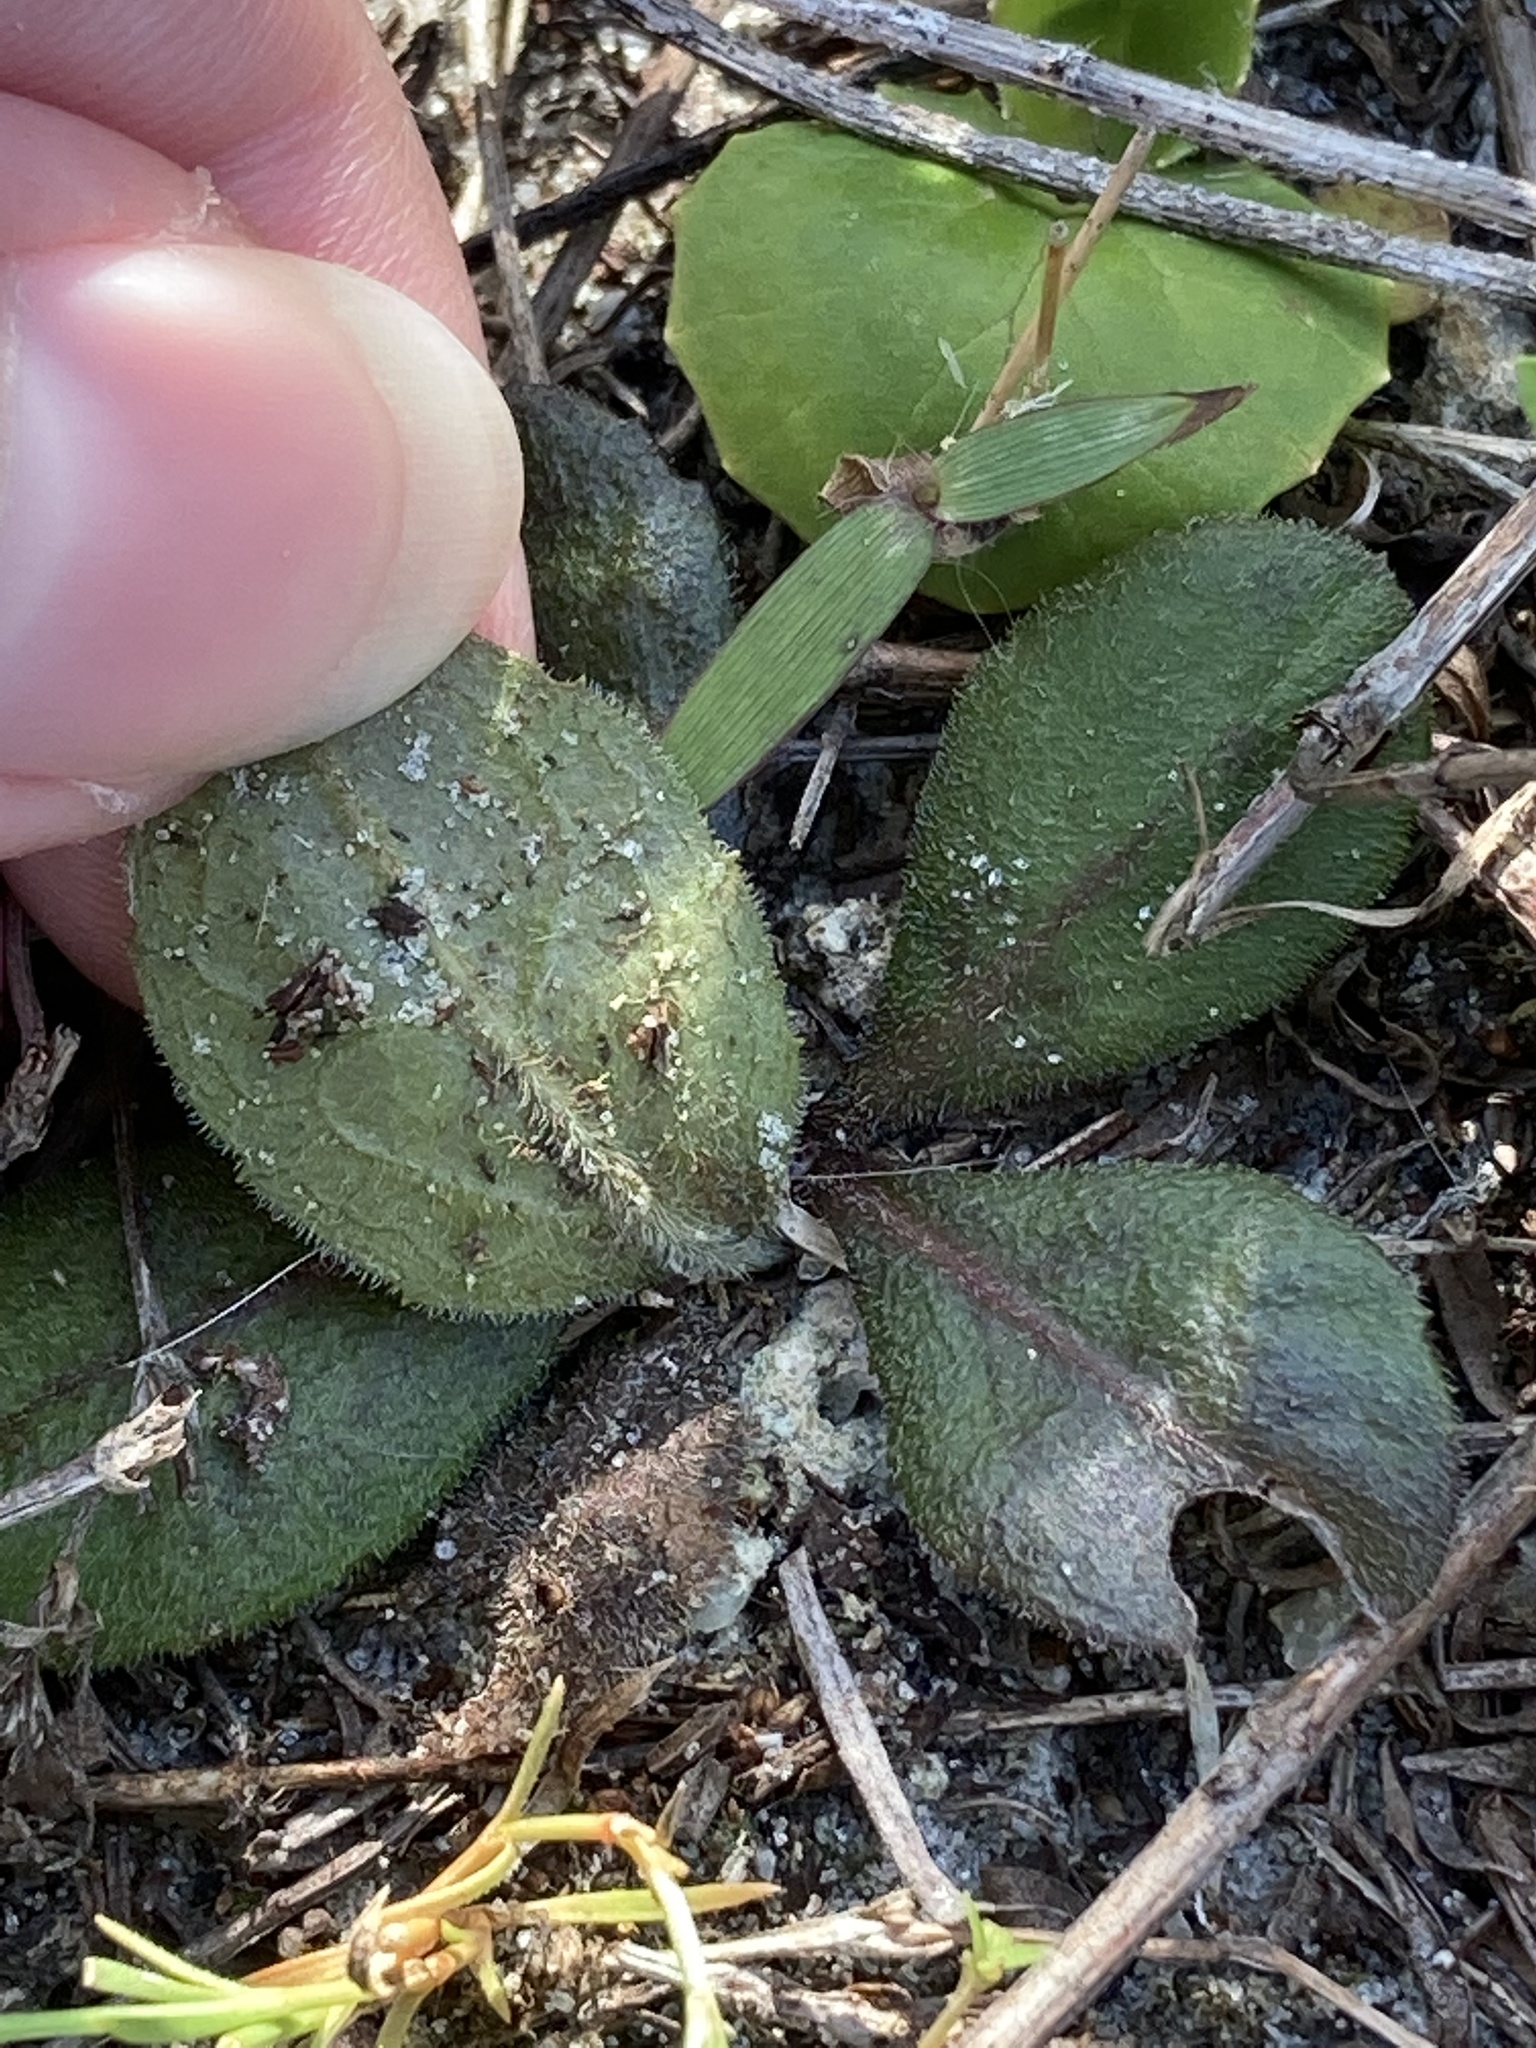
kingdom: Plantae
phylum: Tracheophyta
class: Magnoliopsida
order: Asterales
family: Asteraceae
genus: Erigeron
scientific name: Erigeron quercifolius
